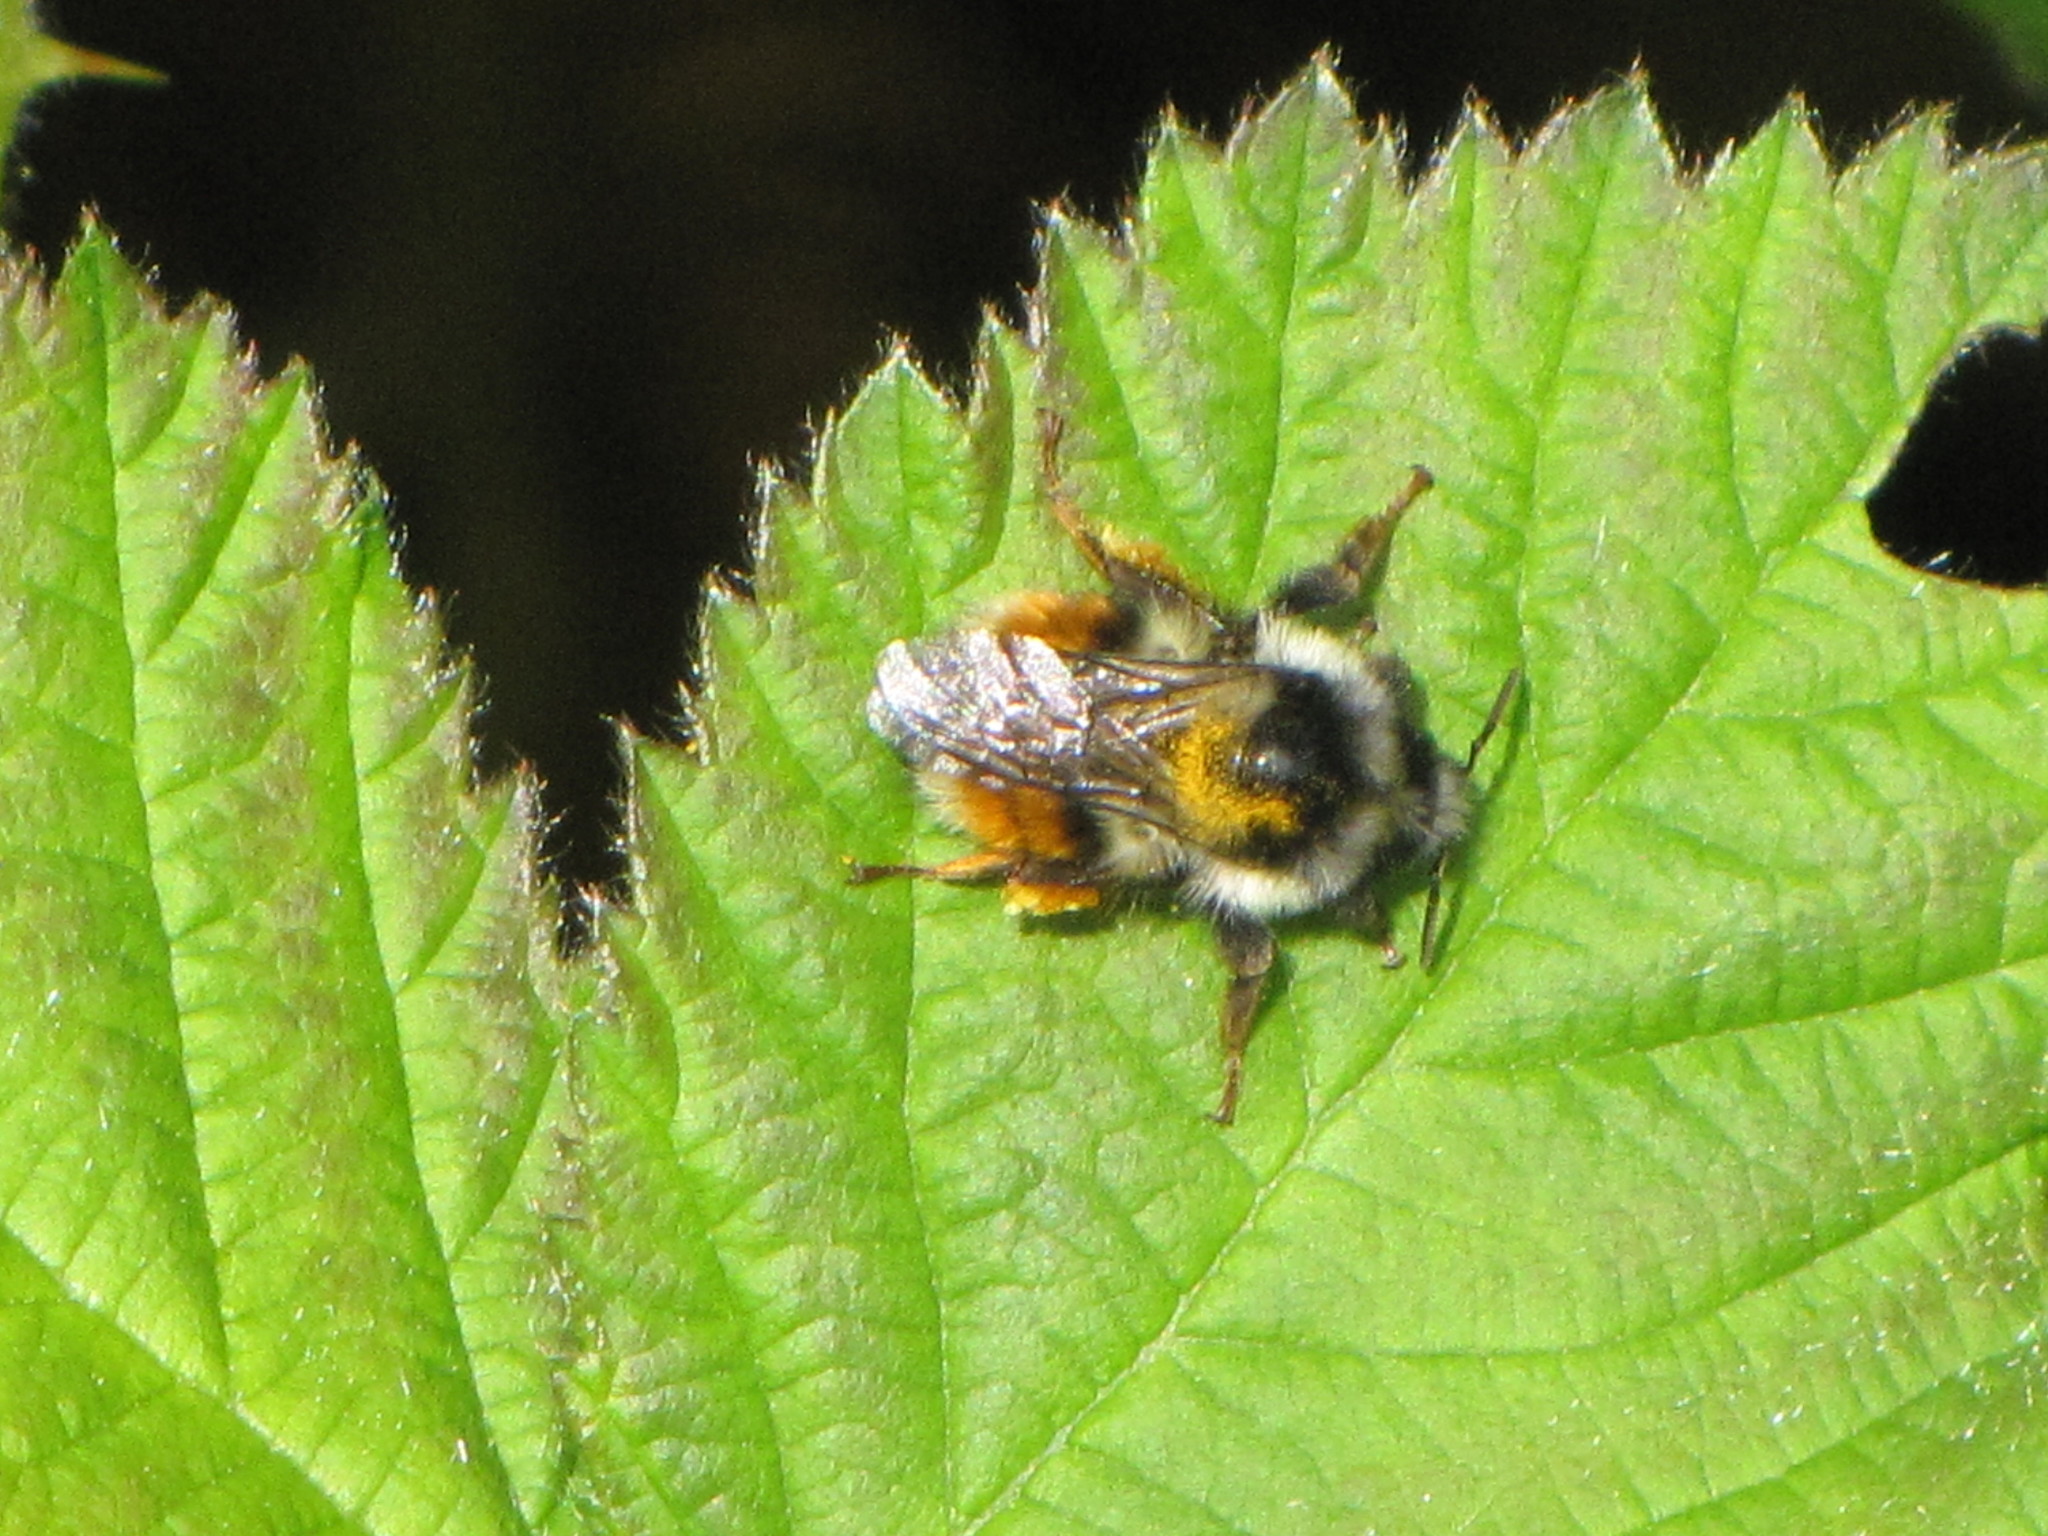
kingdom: Animalia
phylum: Arthropoda
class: Insecta
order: Hymenoptera
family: Apidae
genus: Bombus
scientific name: Bombus vancouverensis
